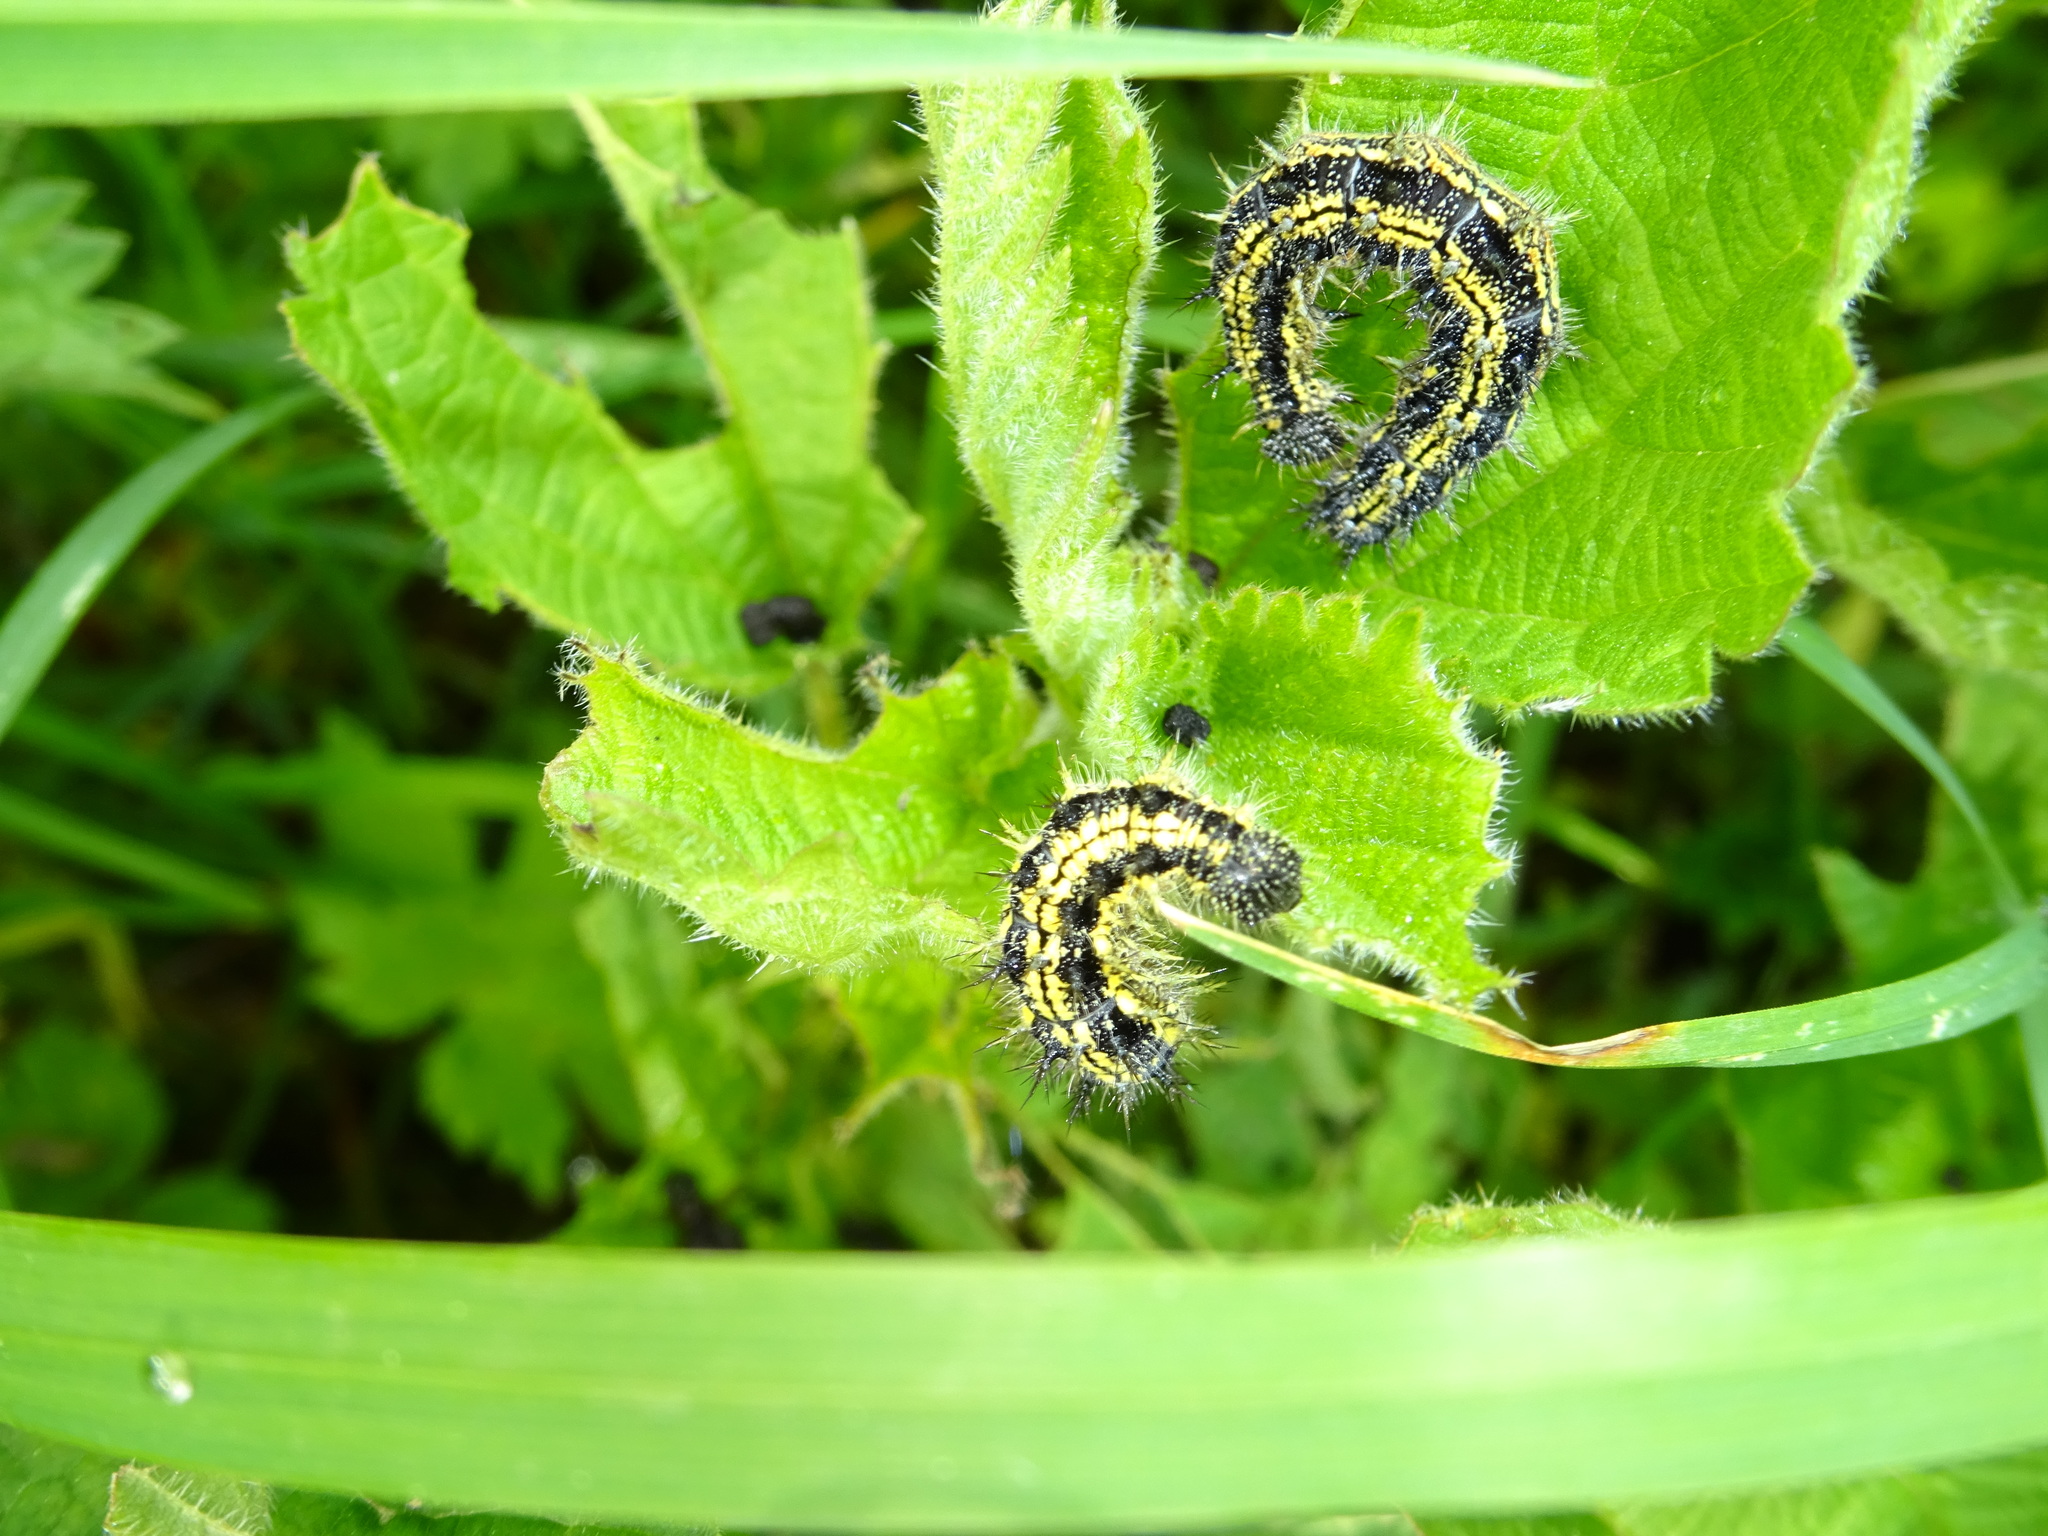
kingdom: Animalia
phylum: Arthropoda
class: Insecta
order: Lepidoptera
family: Nymphalidae
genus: Aglais
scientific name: Aglais urticae
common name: Small tortoiseshell
